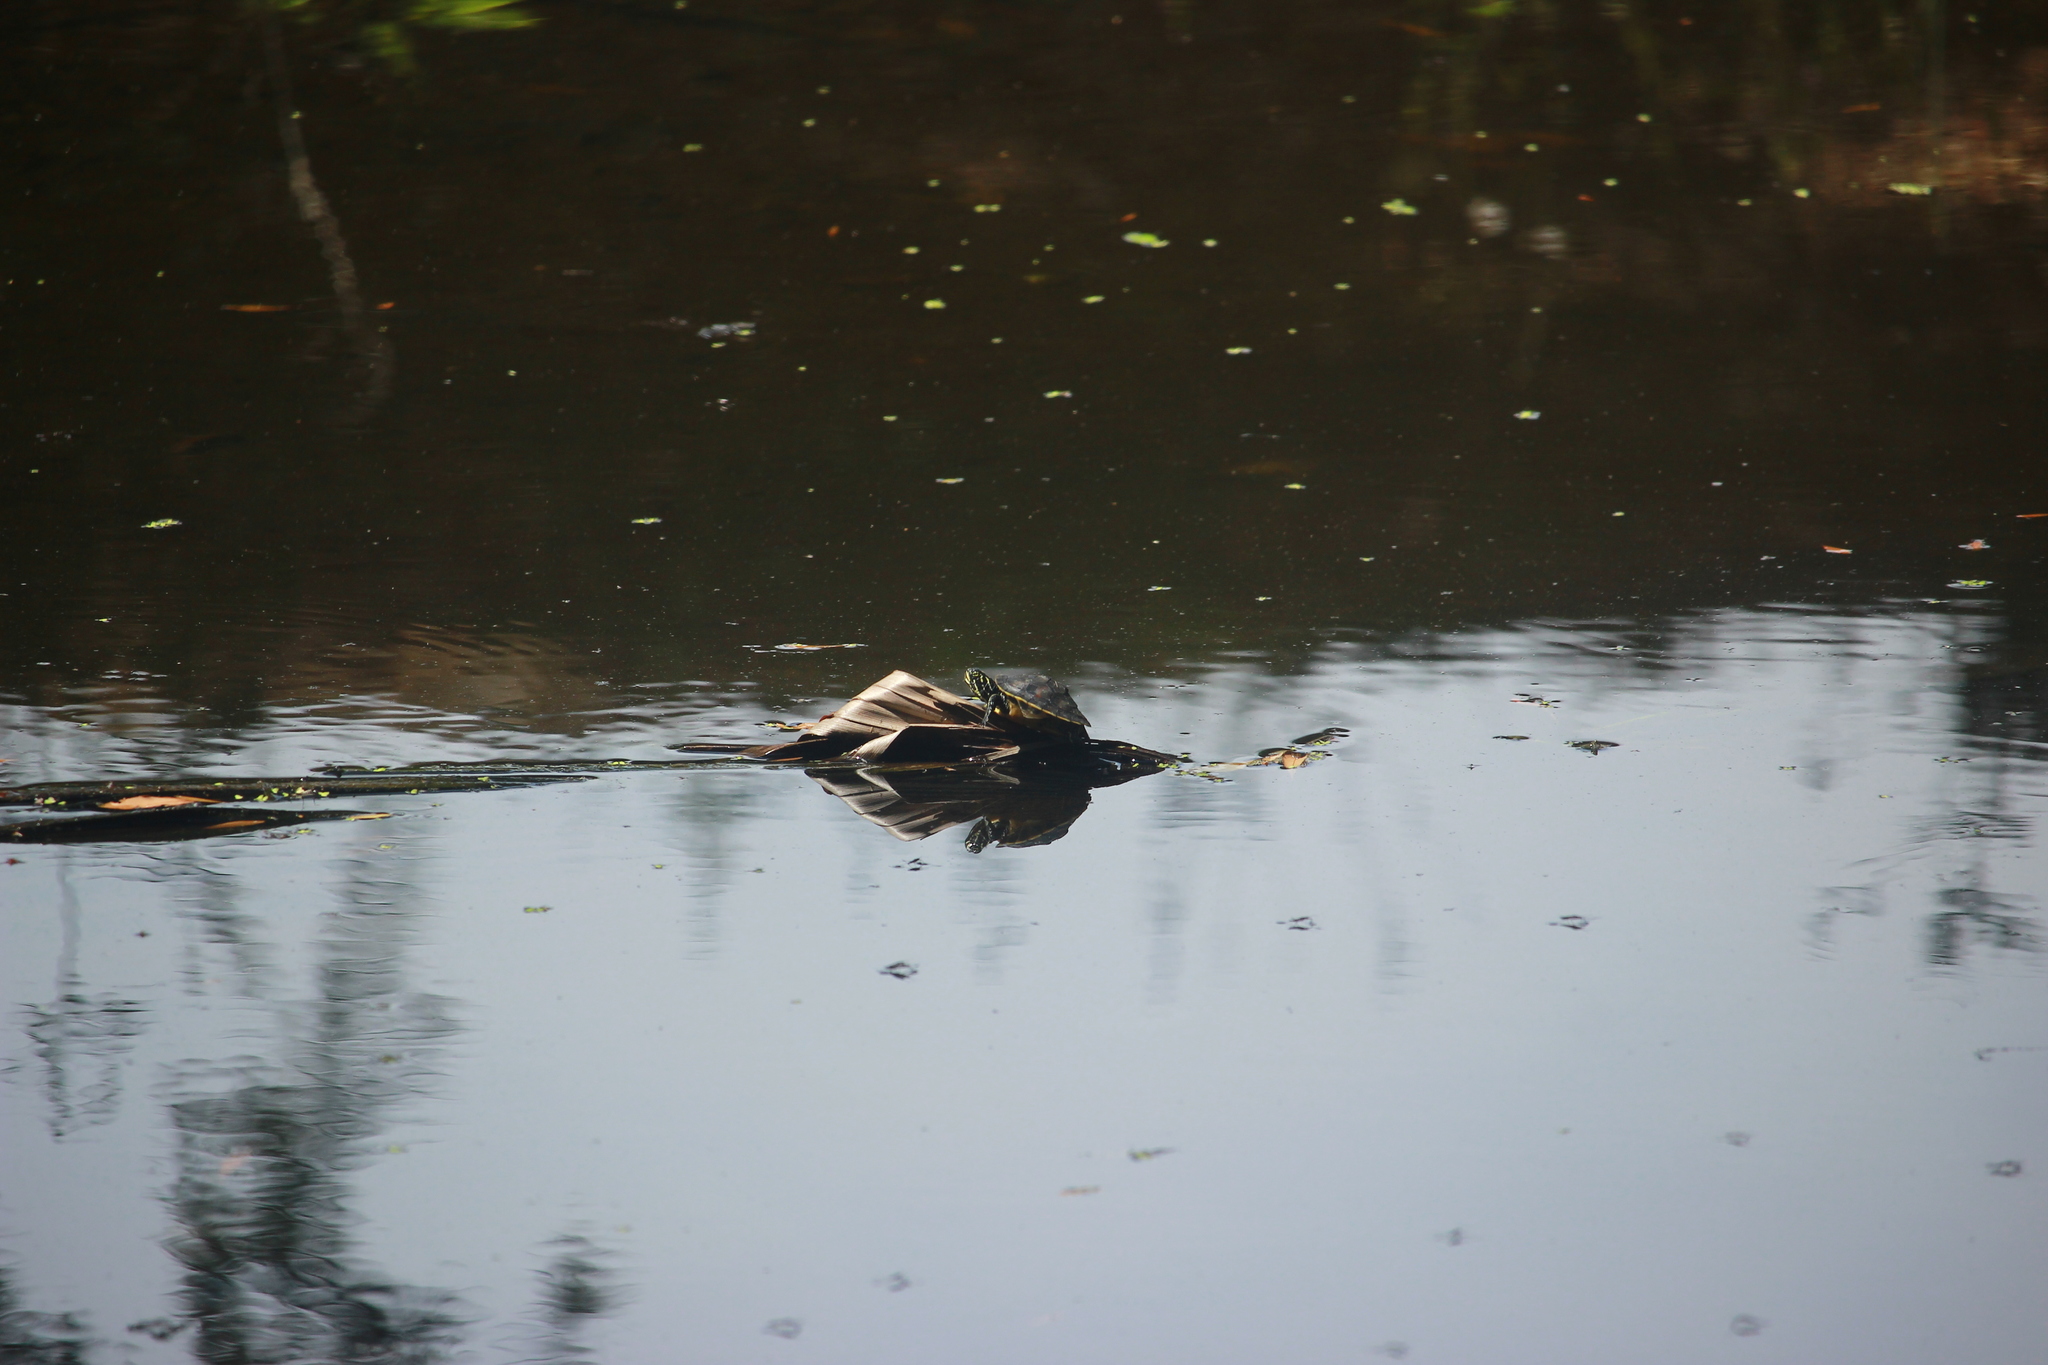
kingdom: Animalia
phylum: Chordata
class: Testudines
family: Emydidae
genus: Trachemys
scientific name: Trachemys scripta
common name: Slider
